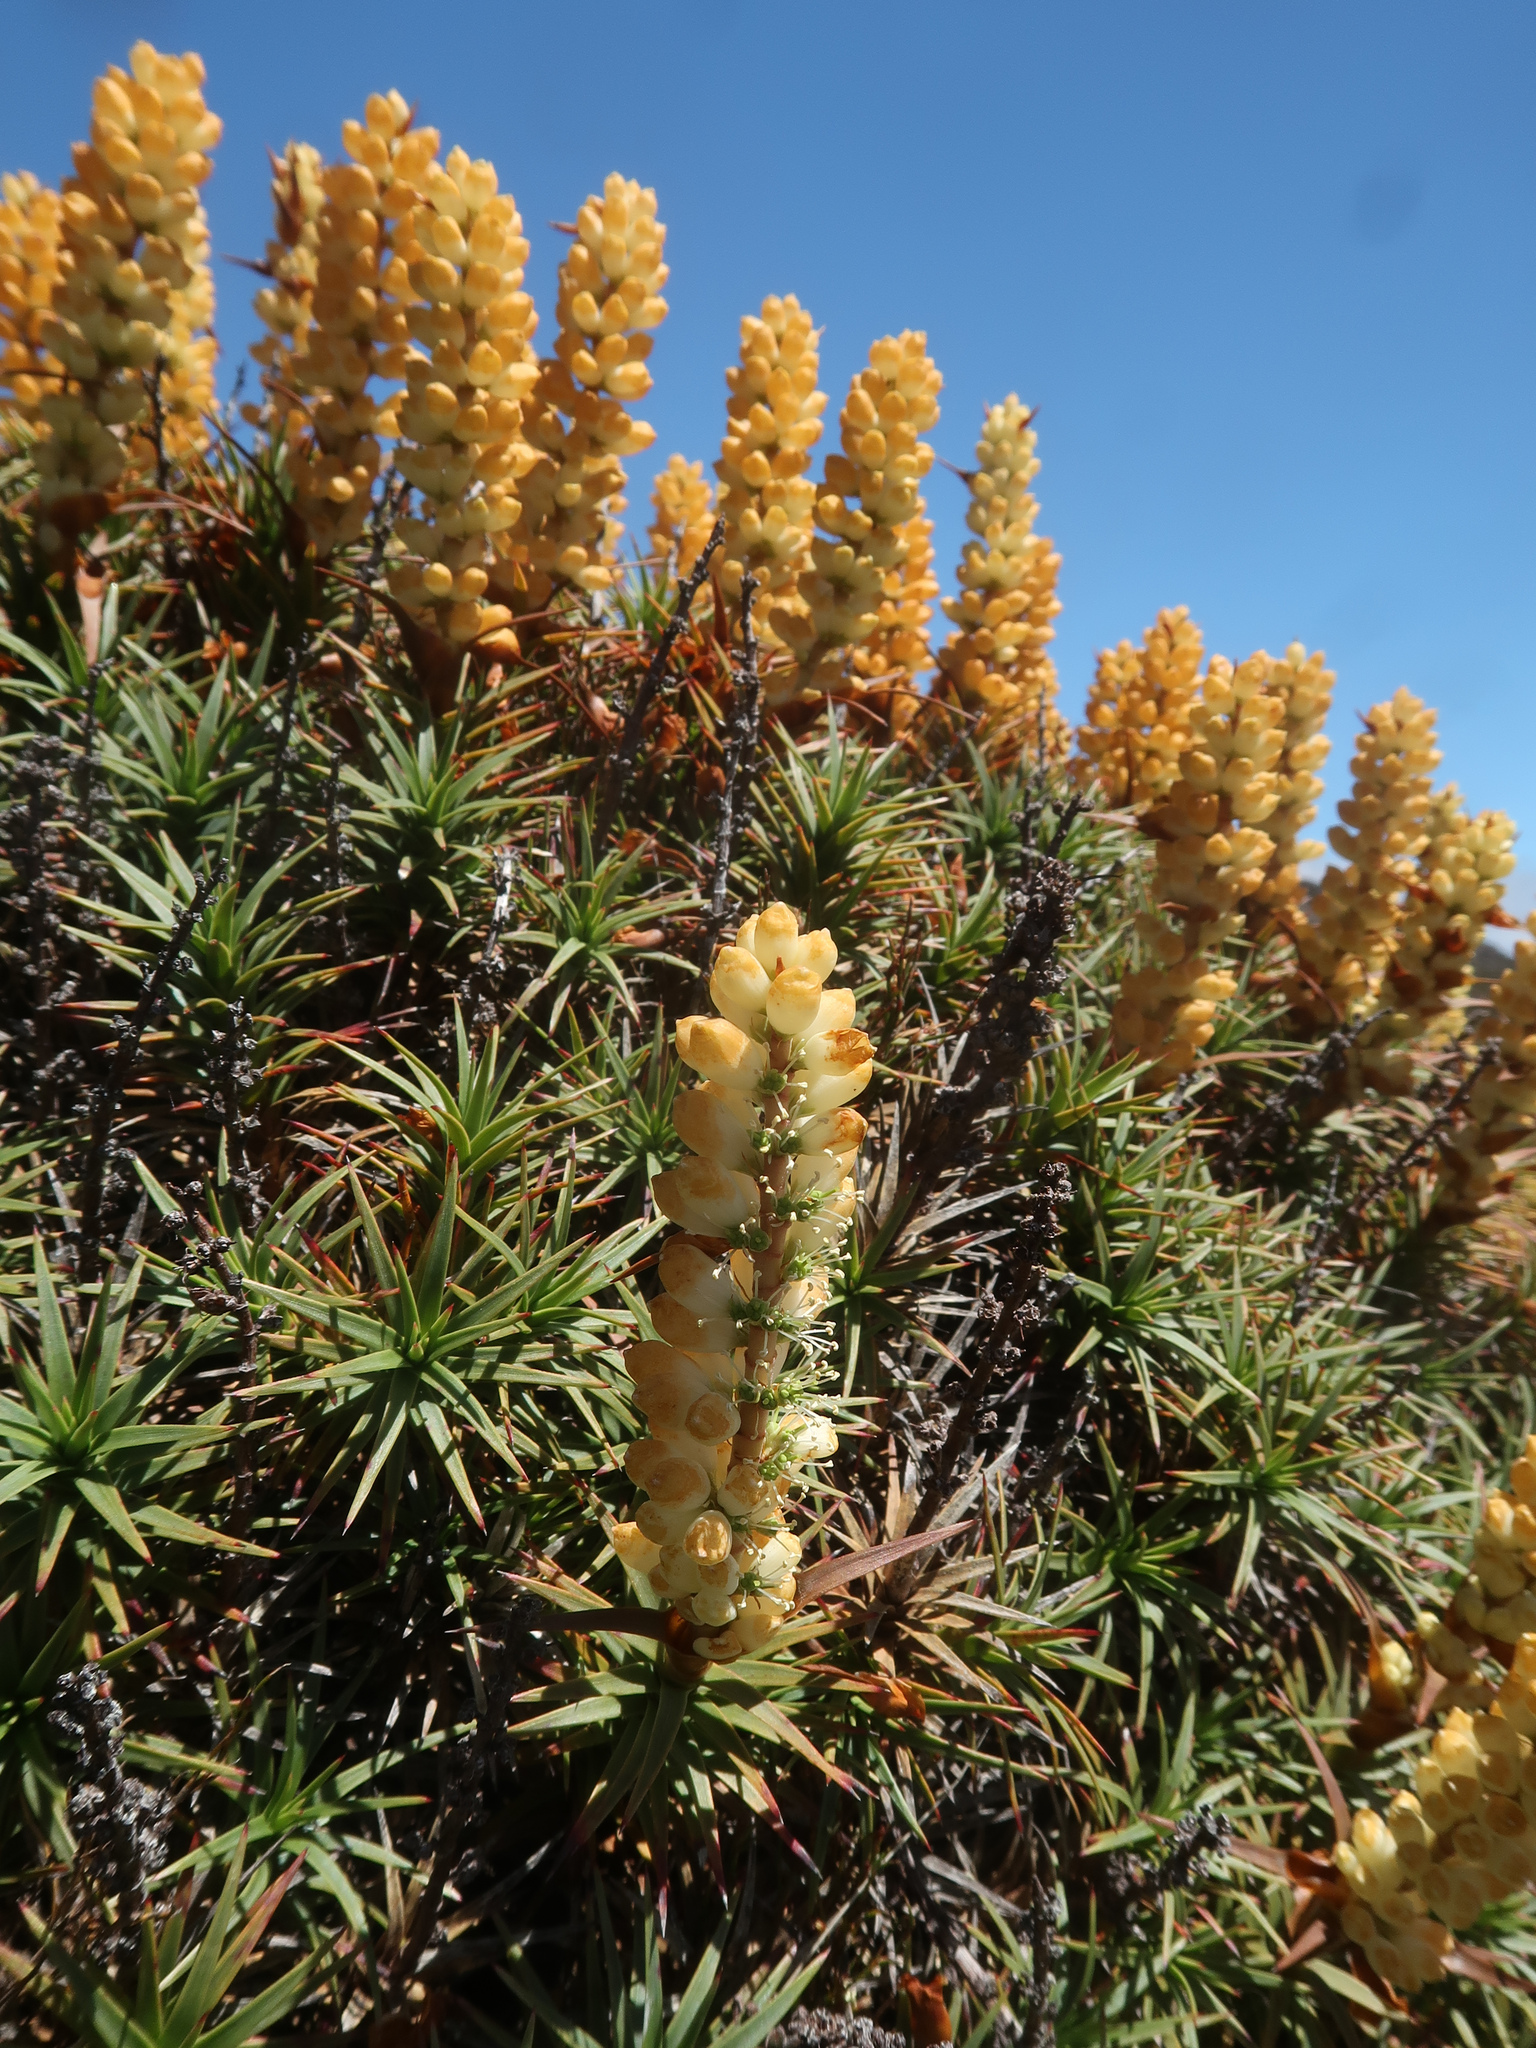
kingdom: Plantae
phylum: Tracheophyta
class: Magnoliopsida
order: Ericales
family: Ericaceae
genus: Dracophyllum
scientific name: Dracophyllum persistentifolium
